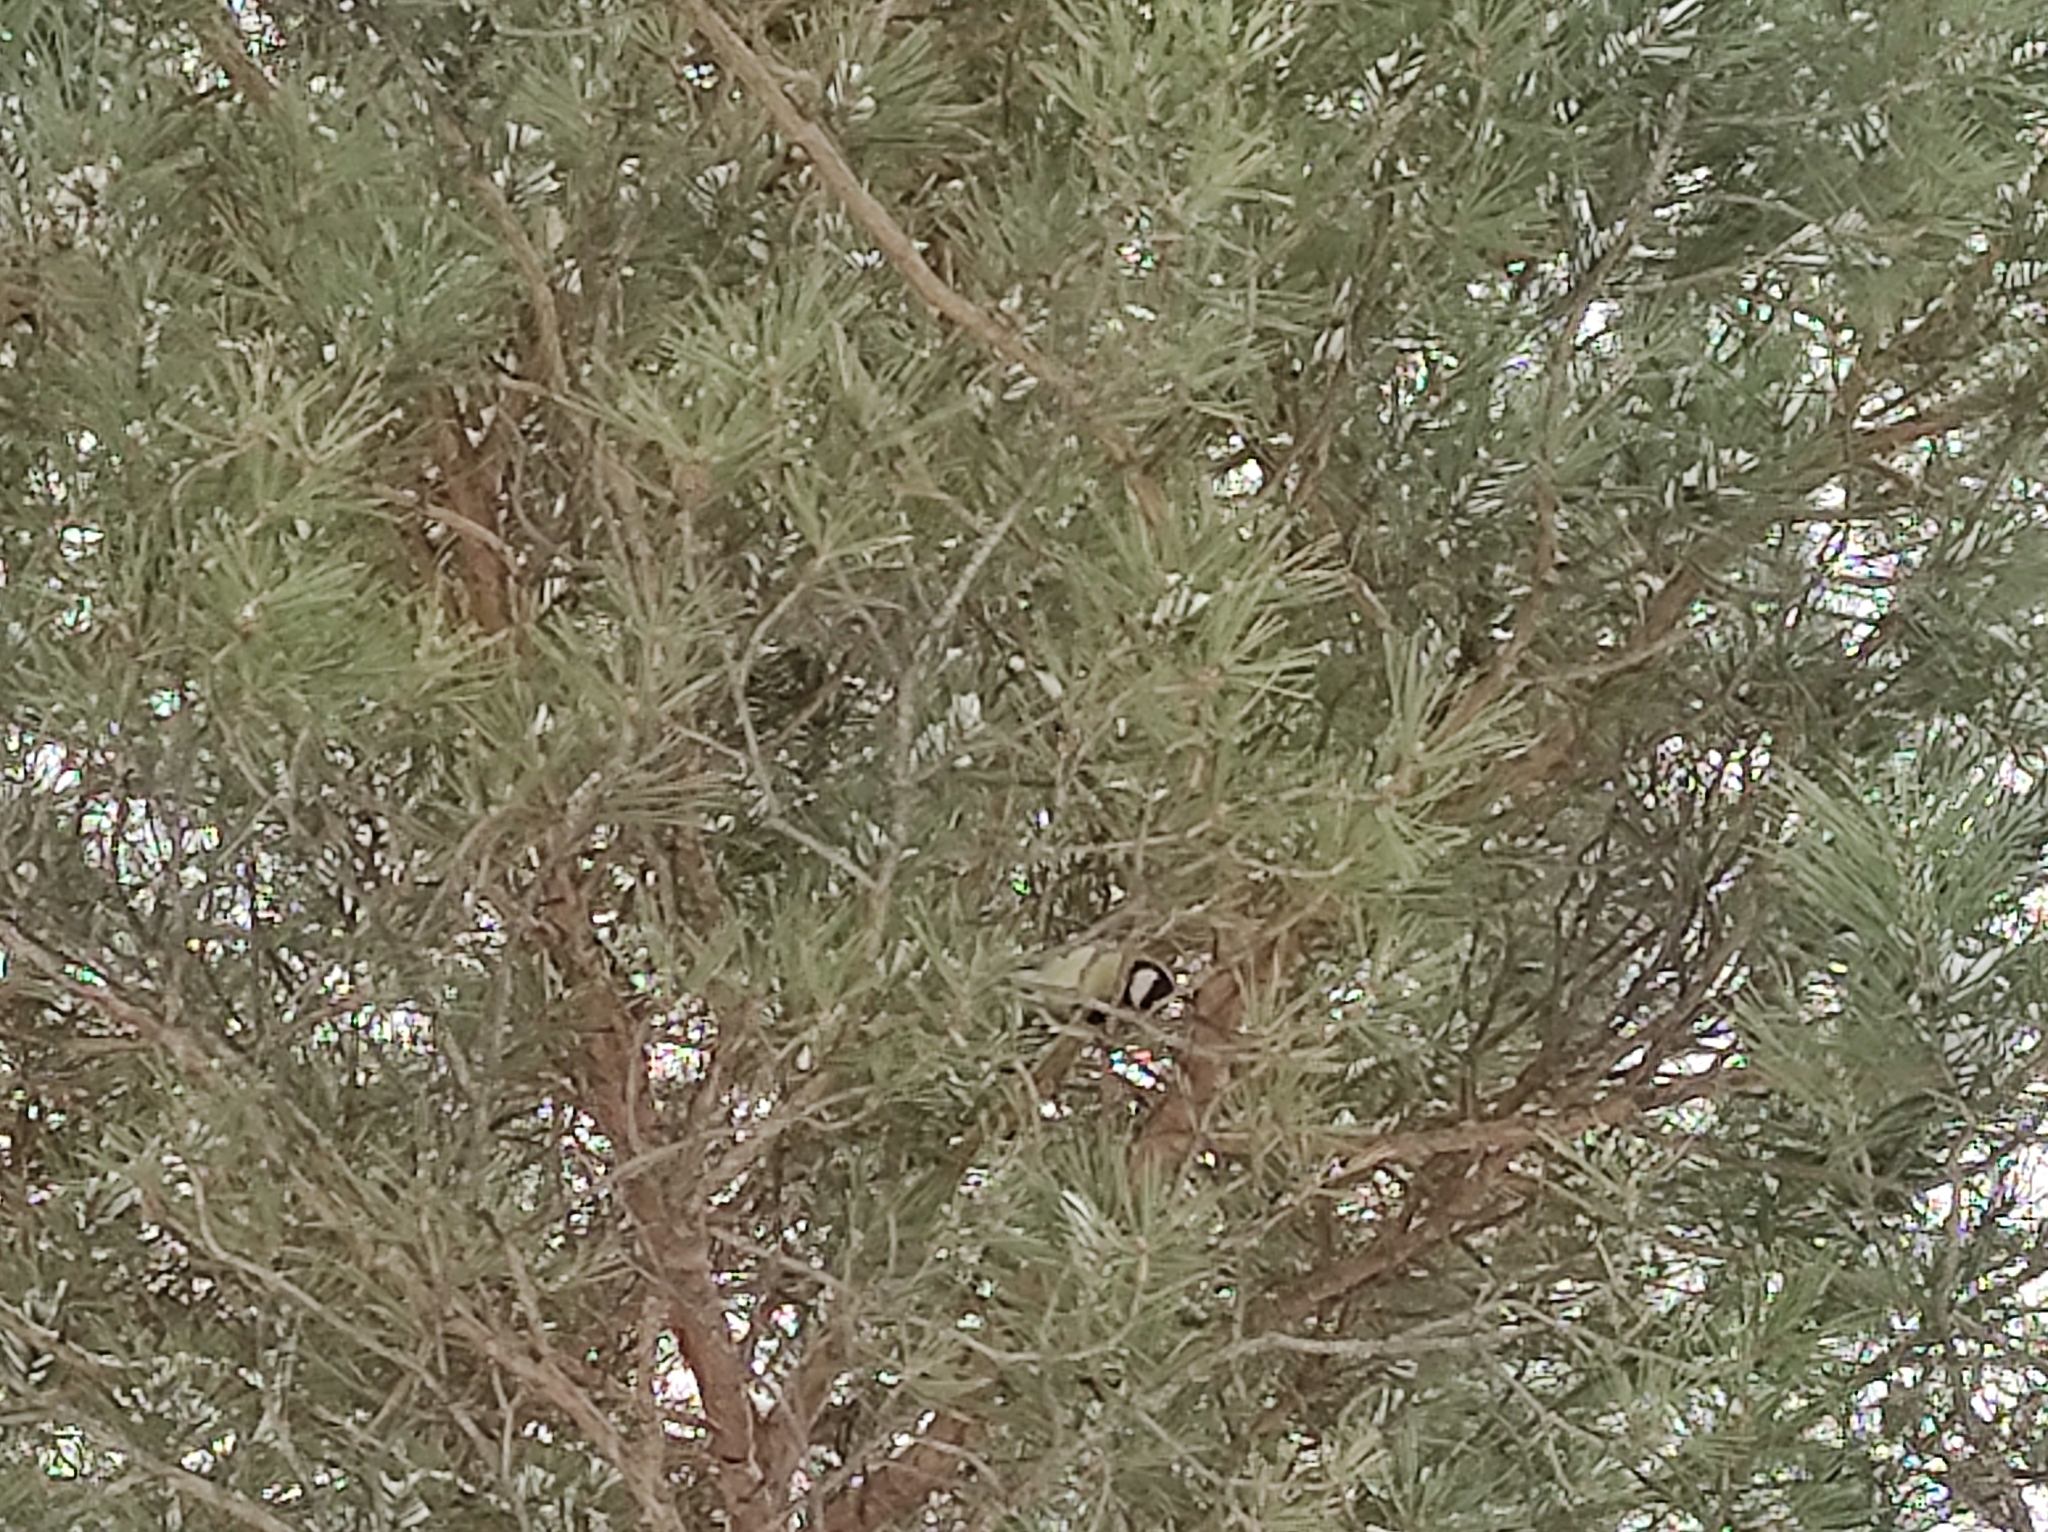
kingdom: Animalia
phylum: Chordata
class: Aves
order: Passeriformes
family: Paridae
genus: Parus
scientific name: Parus major
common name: Great tit
